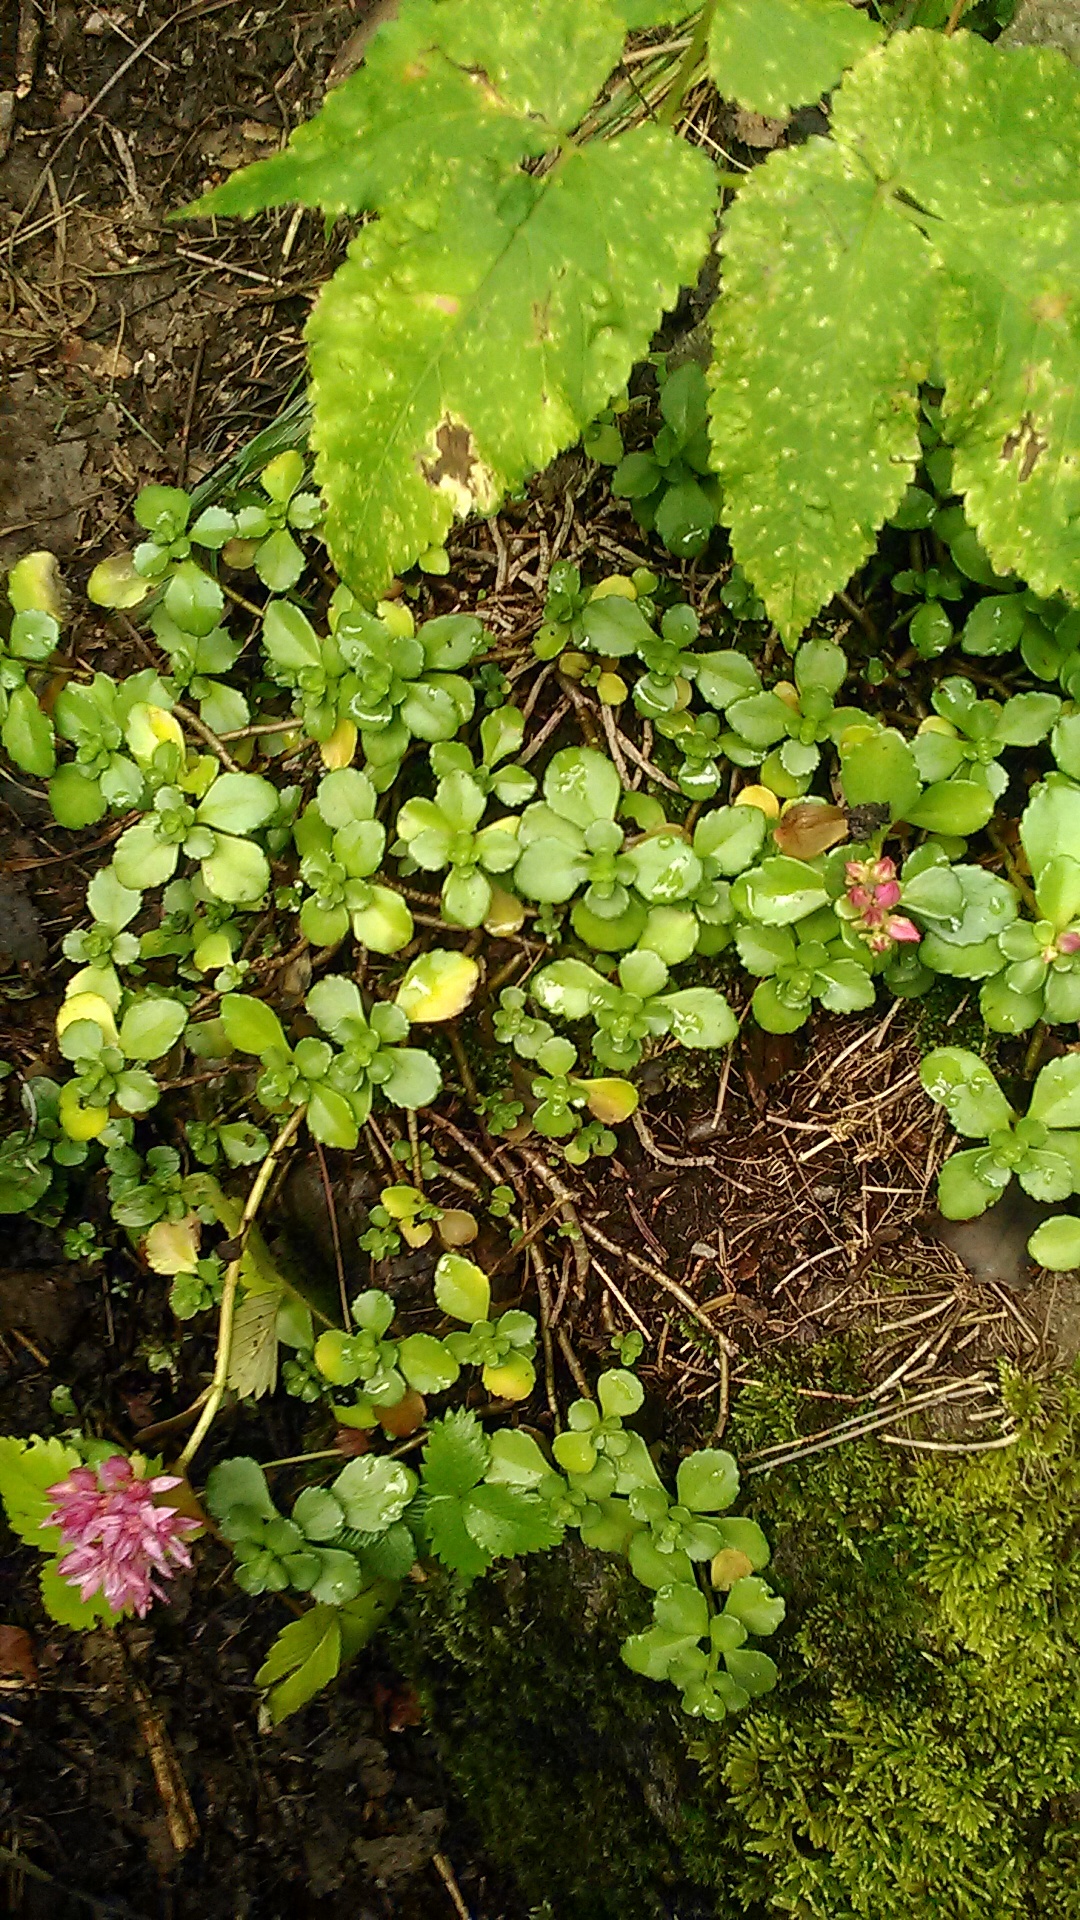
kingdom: Plantae
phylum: Tracheophyta
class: Magnoliopsida
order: Saxifragales
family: Crassulaceae
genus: Phedimus
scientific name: Phedimus spurius
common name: Caucasian stonecrop
